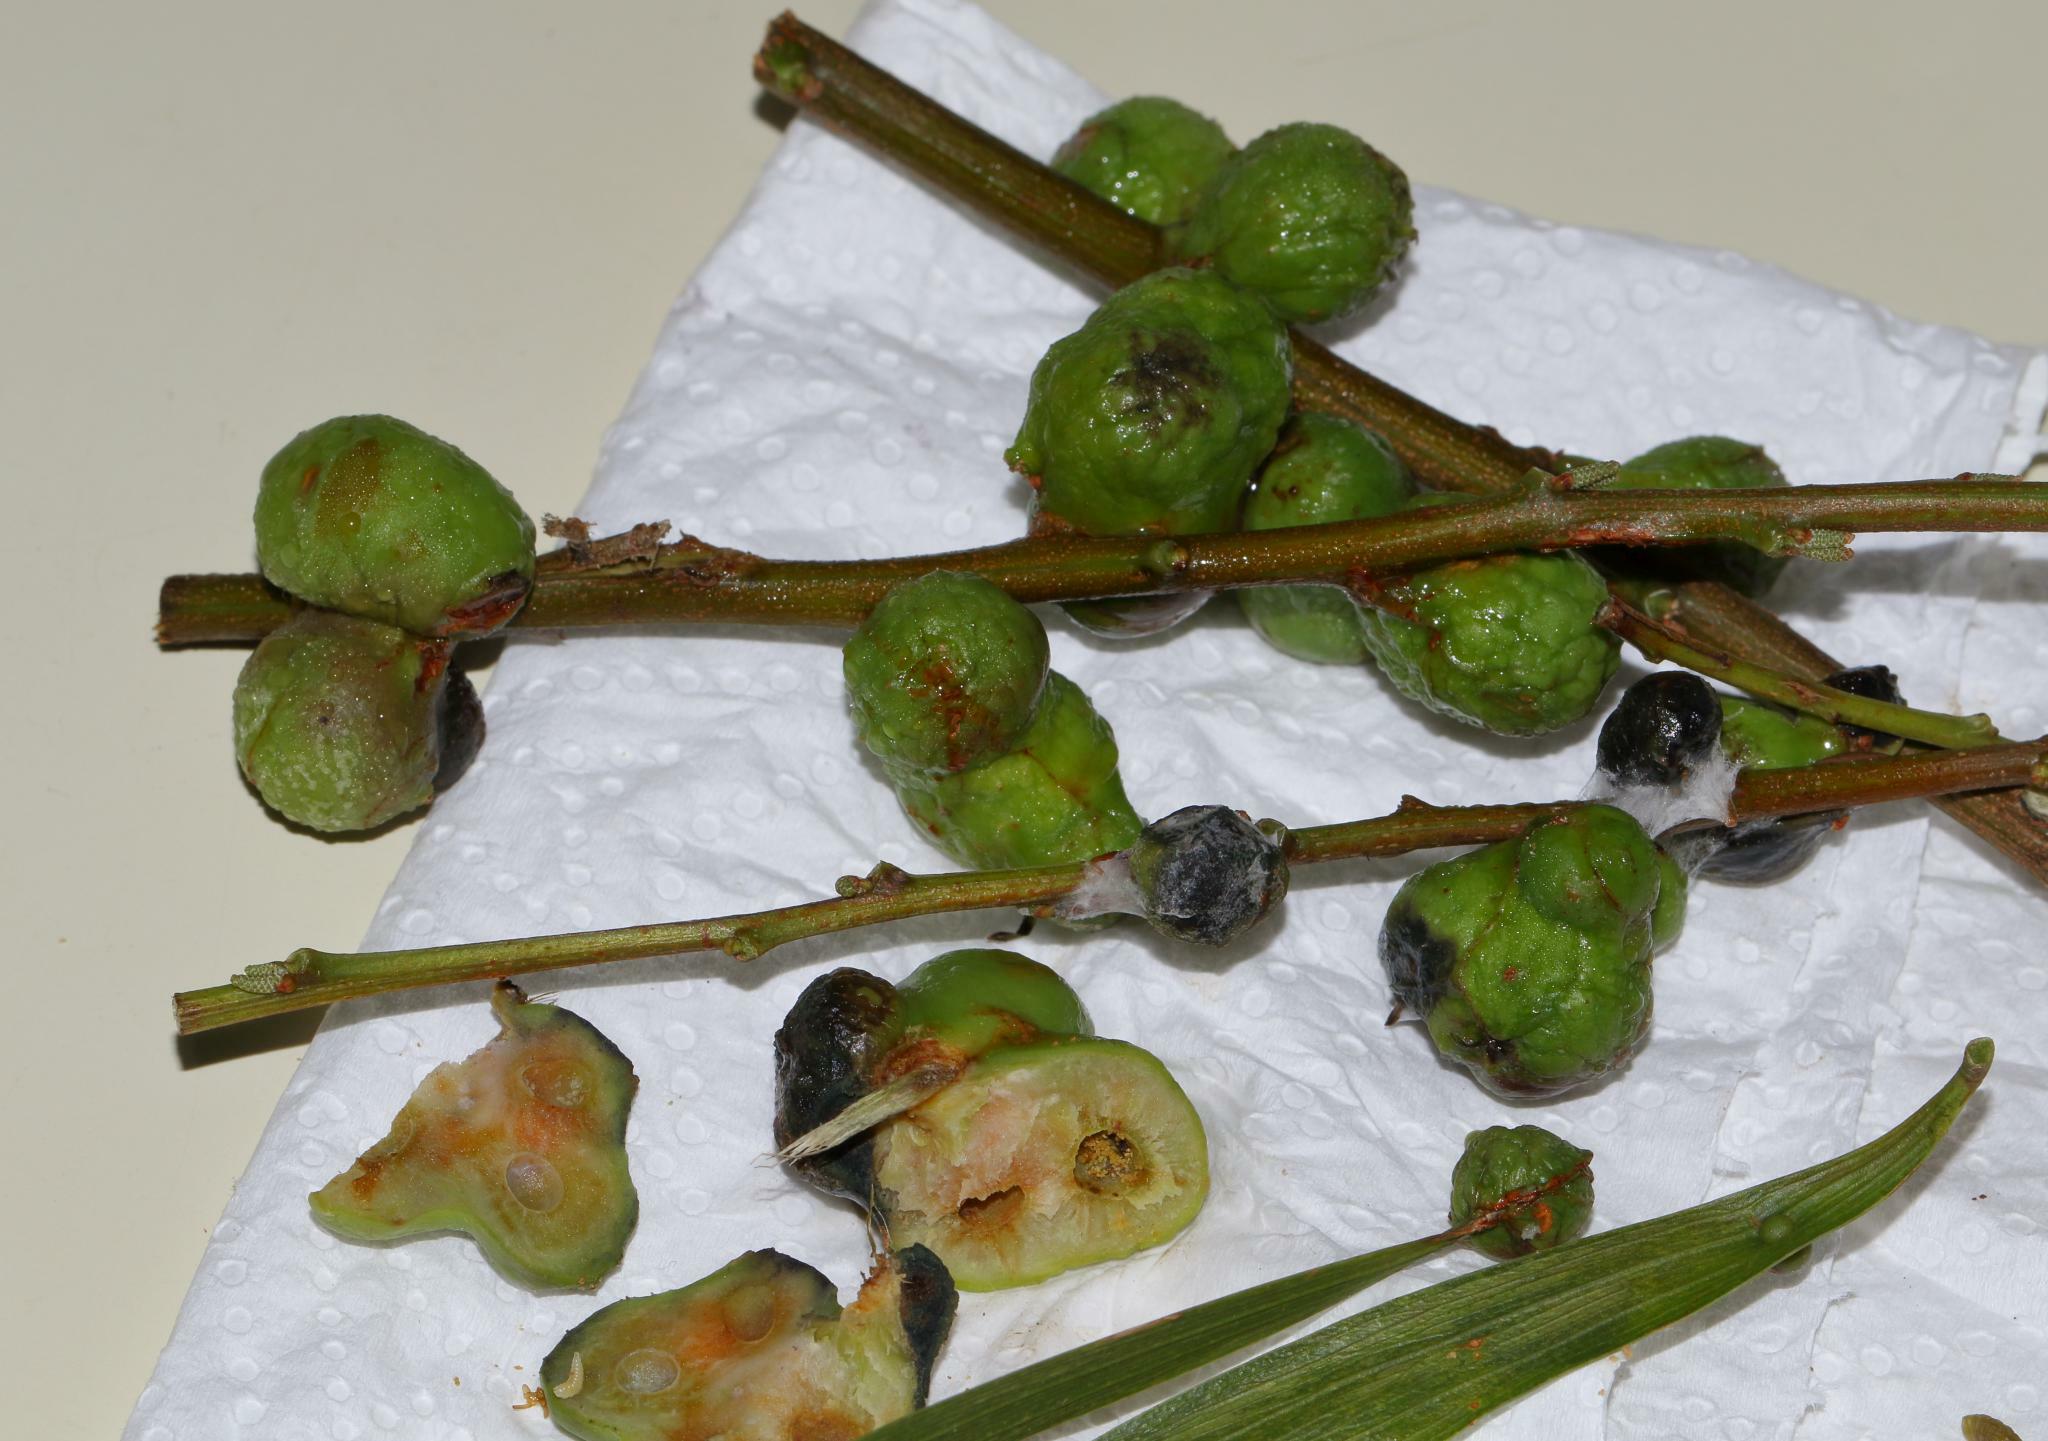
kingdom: Animalia
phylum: Arthropoda
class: Insecta
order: Hymenoptera
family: Pteromalidae
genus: Trichilogaster
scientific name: Trichilogaster acaciaelongifoliae
